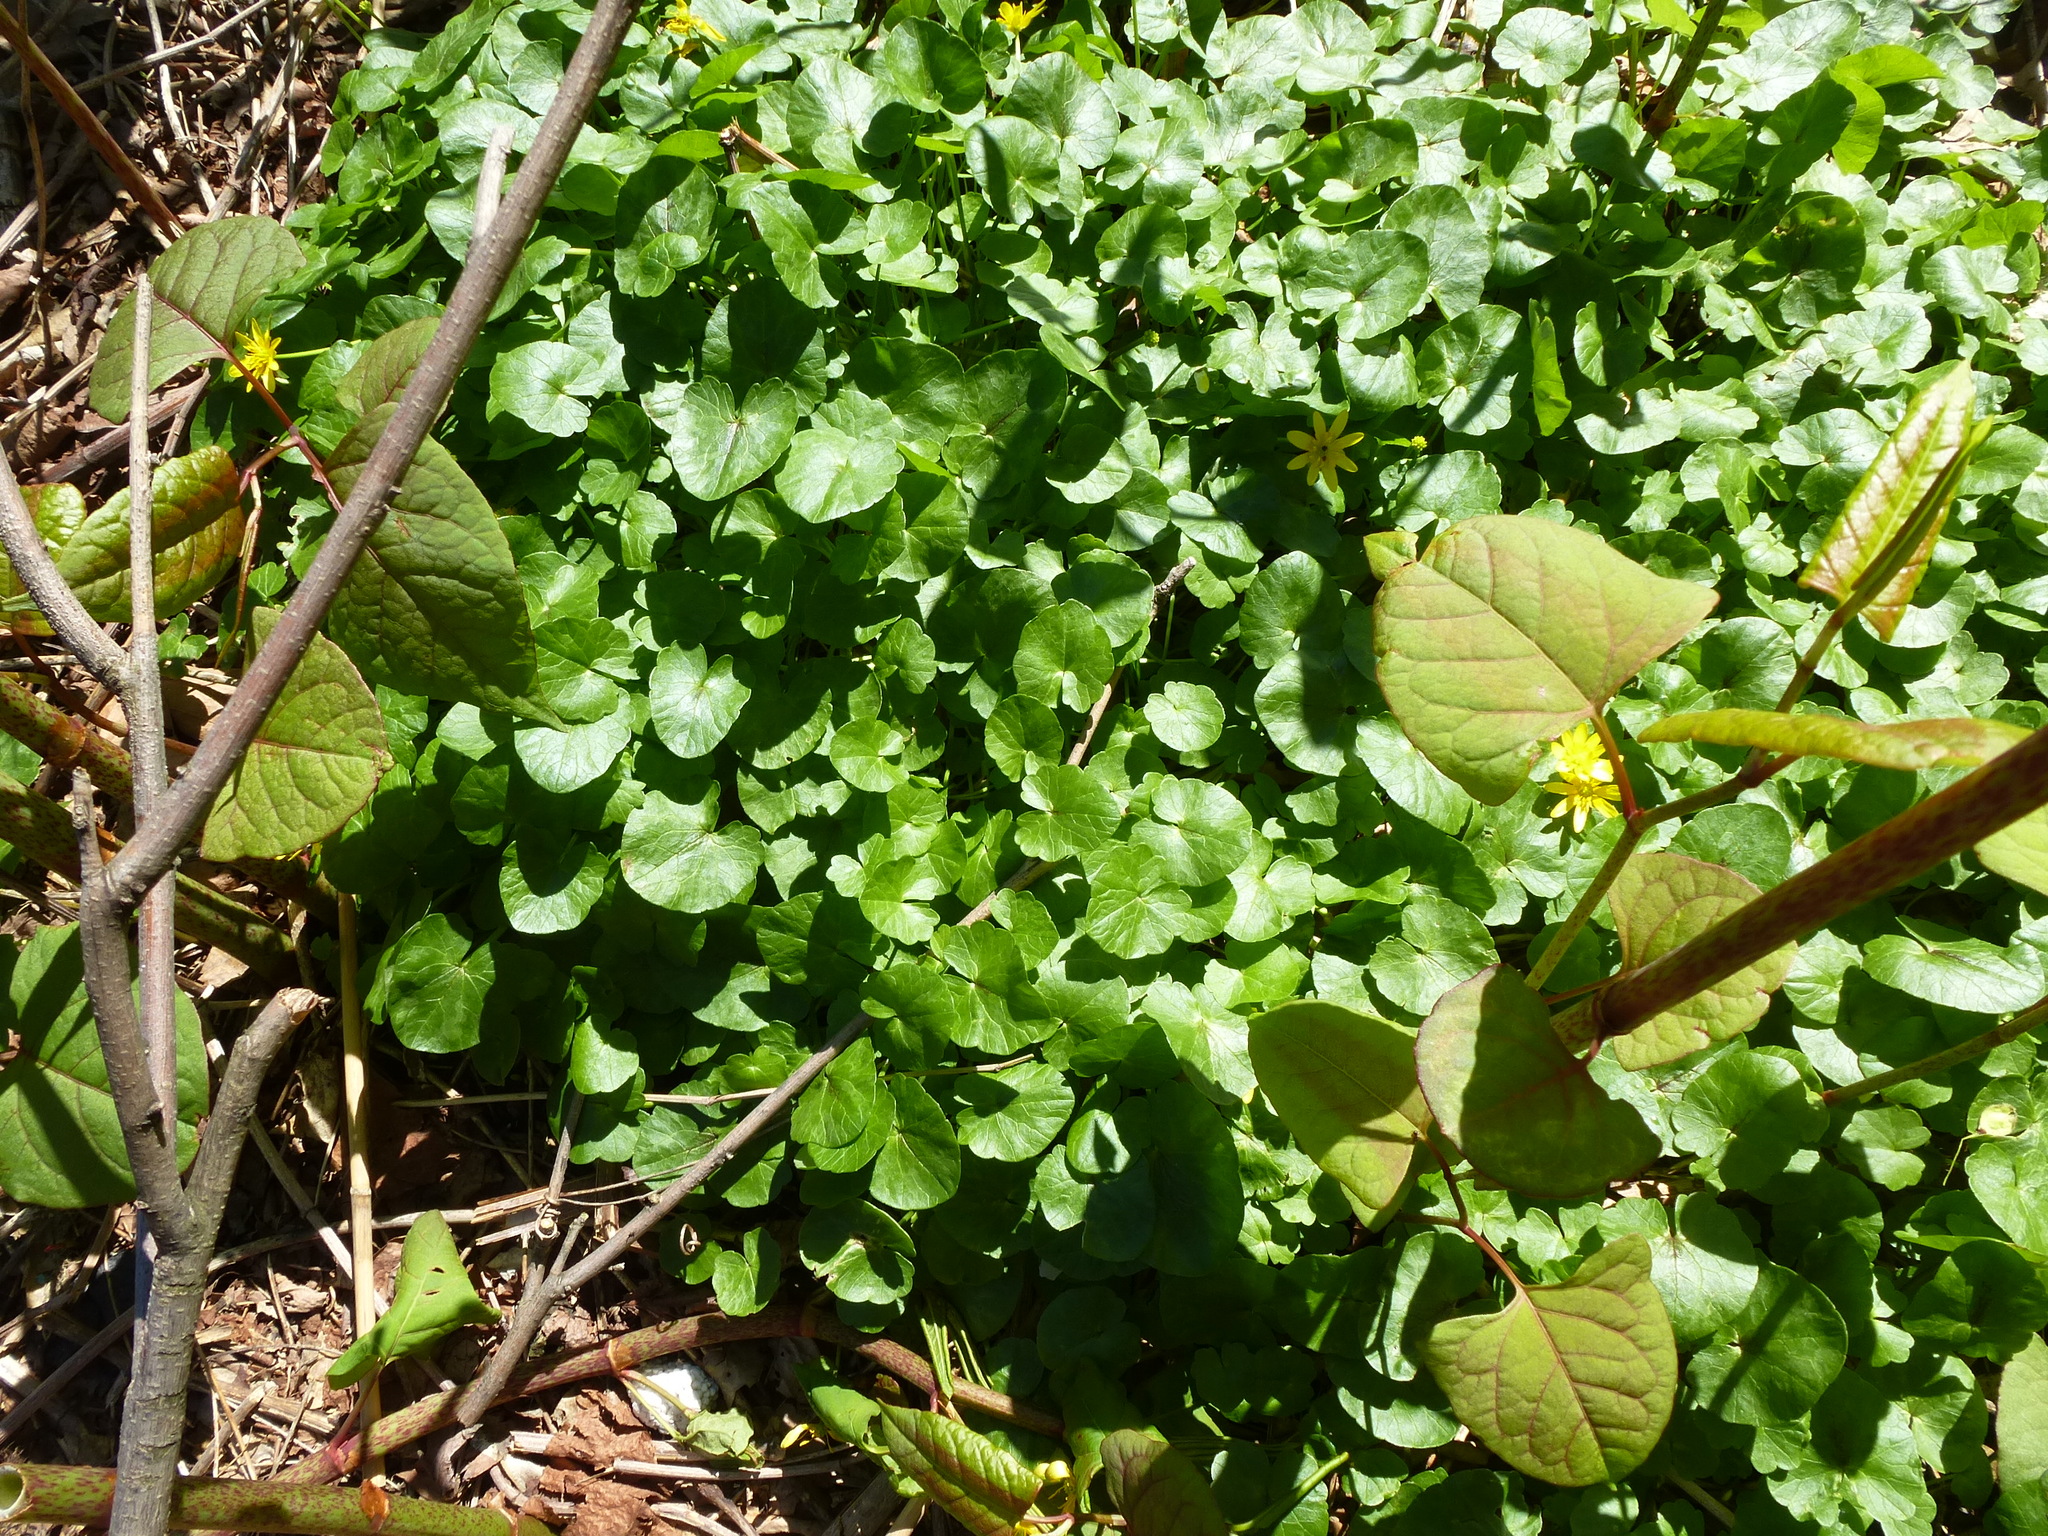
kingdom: Plantae
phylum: Tracheophyta
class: Magnoliopsida
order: Ranunculales
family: Ranunculaceae
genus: Ficaria
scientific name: Ficaria verna
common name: Lesser celandine
